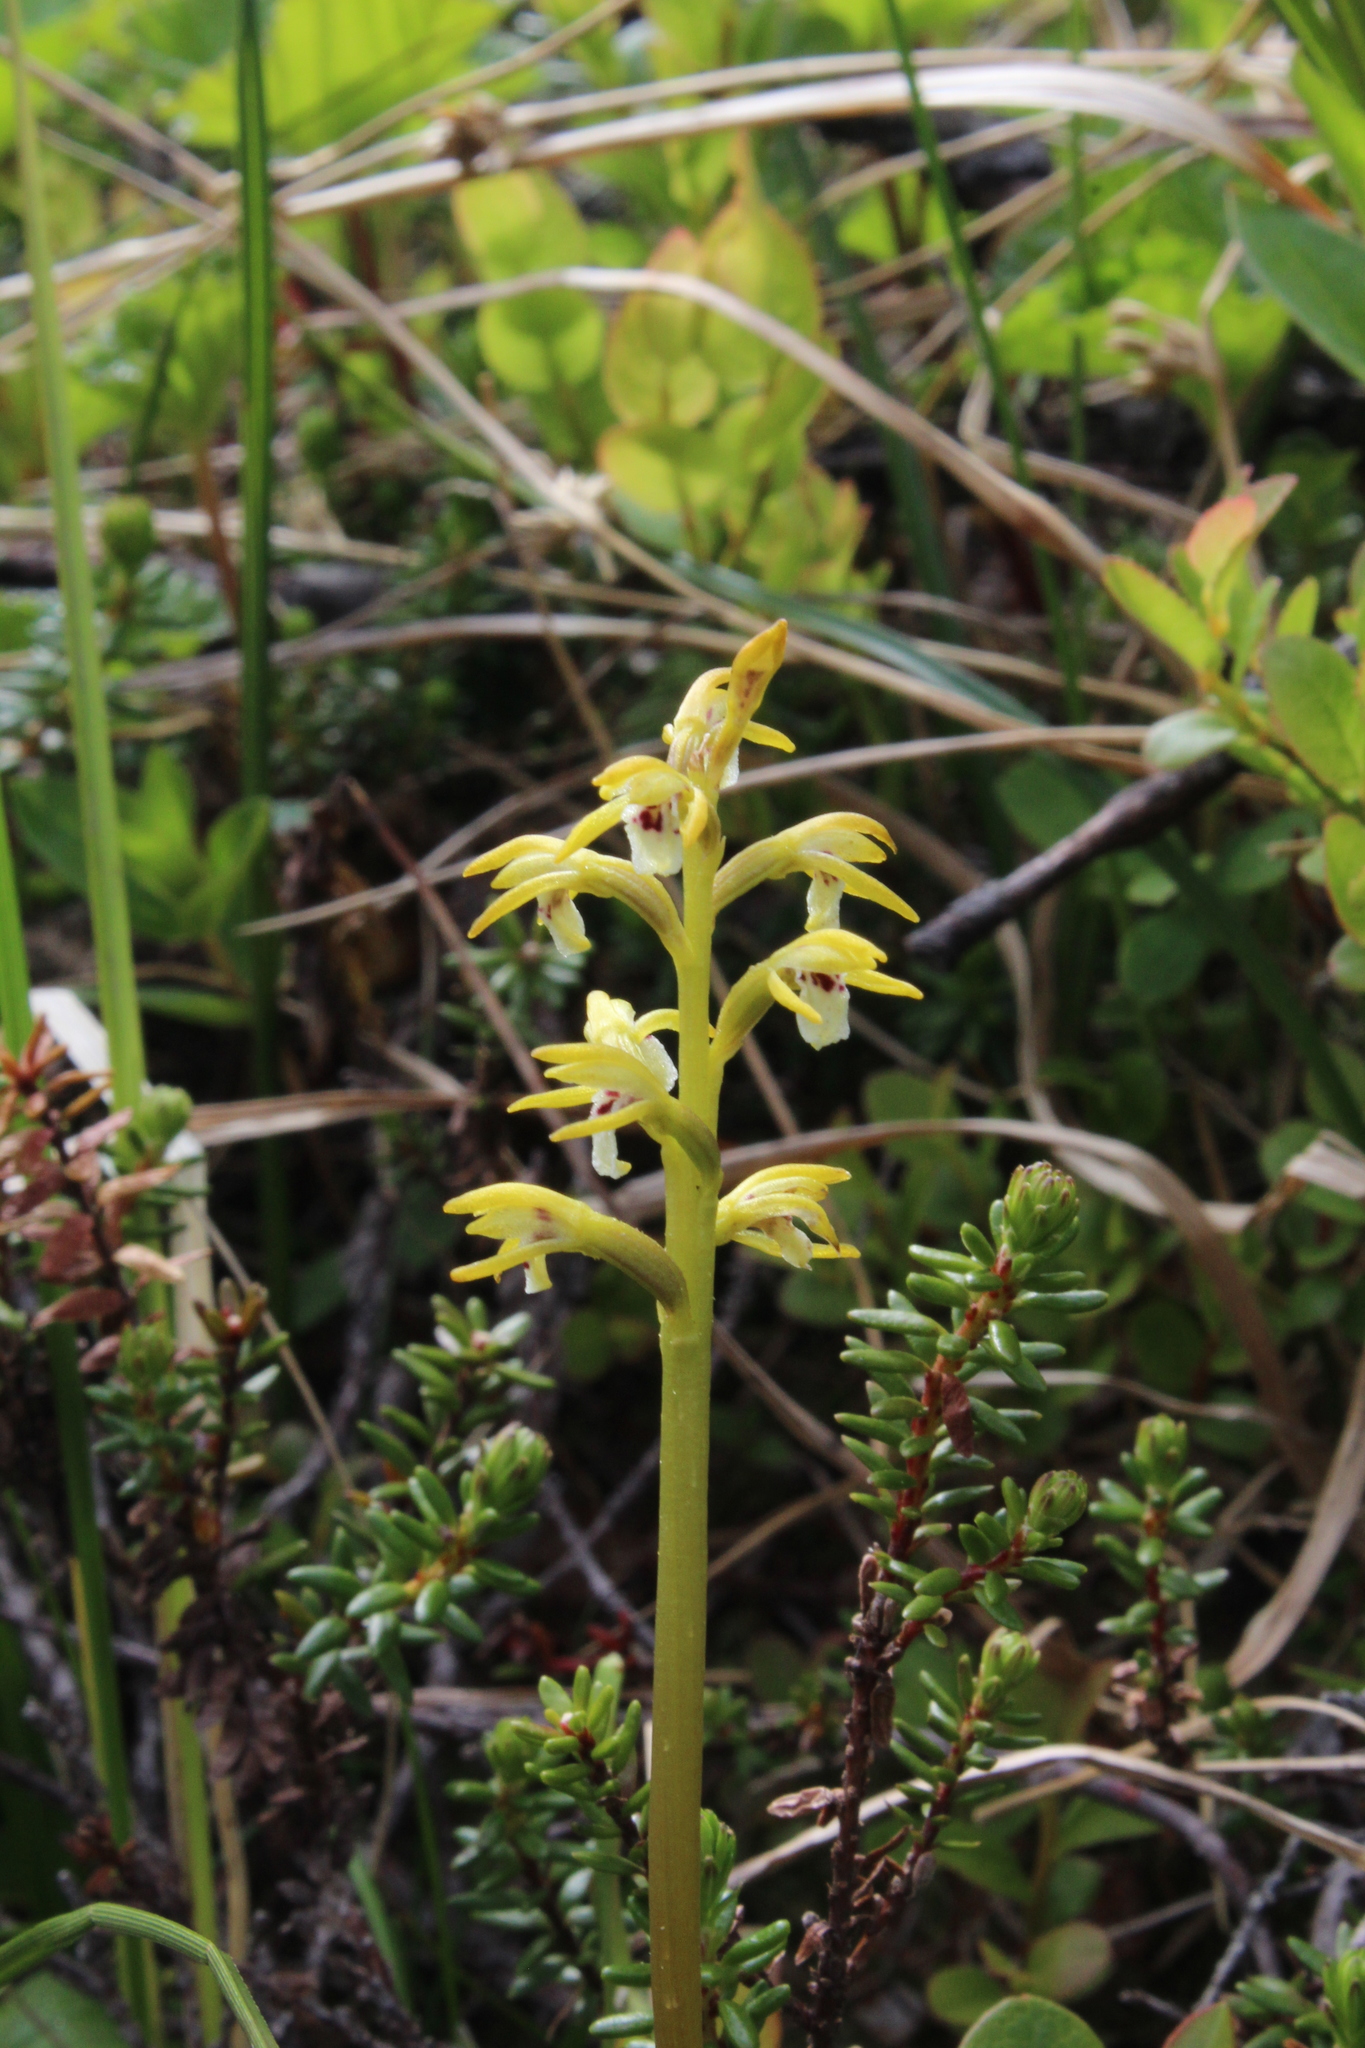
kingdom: Plantae
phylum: Tracheophyta
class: Liliopsida
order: Asparagales
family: Orchidaceae
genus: Corallorhiza
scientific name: Corallorhiza trifida
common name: Yellow coralroot
